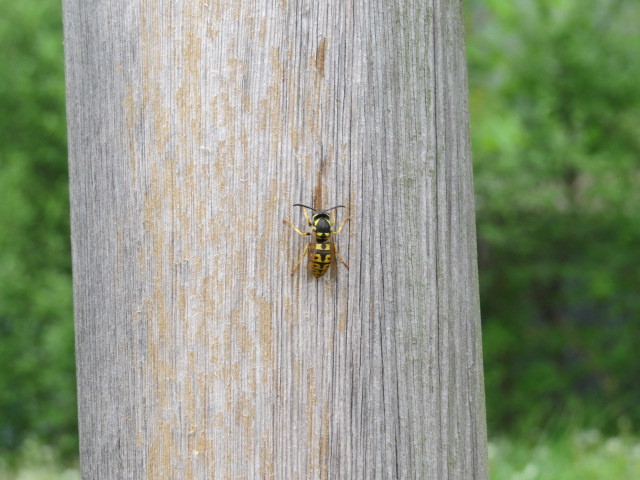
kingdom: Animalia
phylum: Arthropoda
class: Insecta
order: Hymenoptera
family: Vespidae
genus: Vespula
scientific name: Vespula germanica
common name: German wasp
